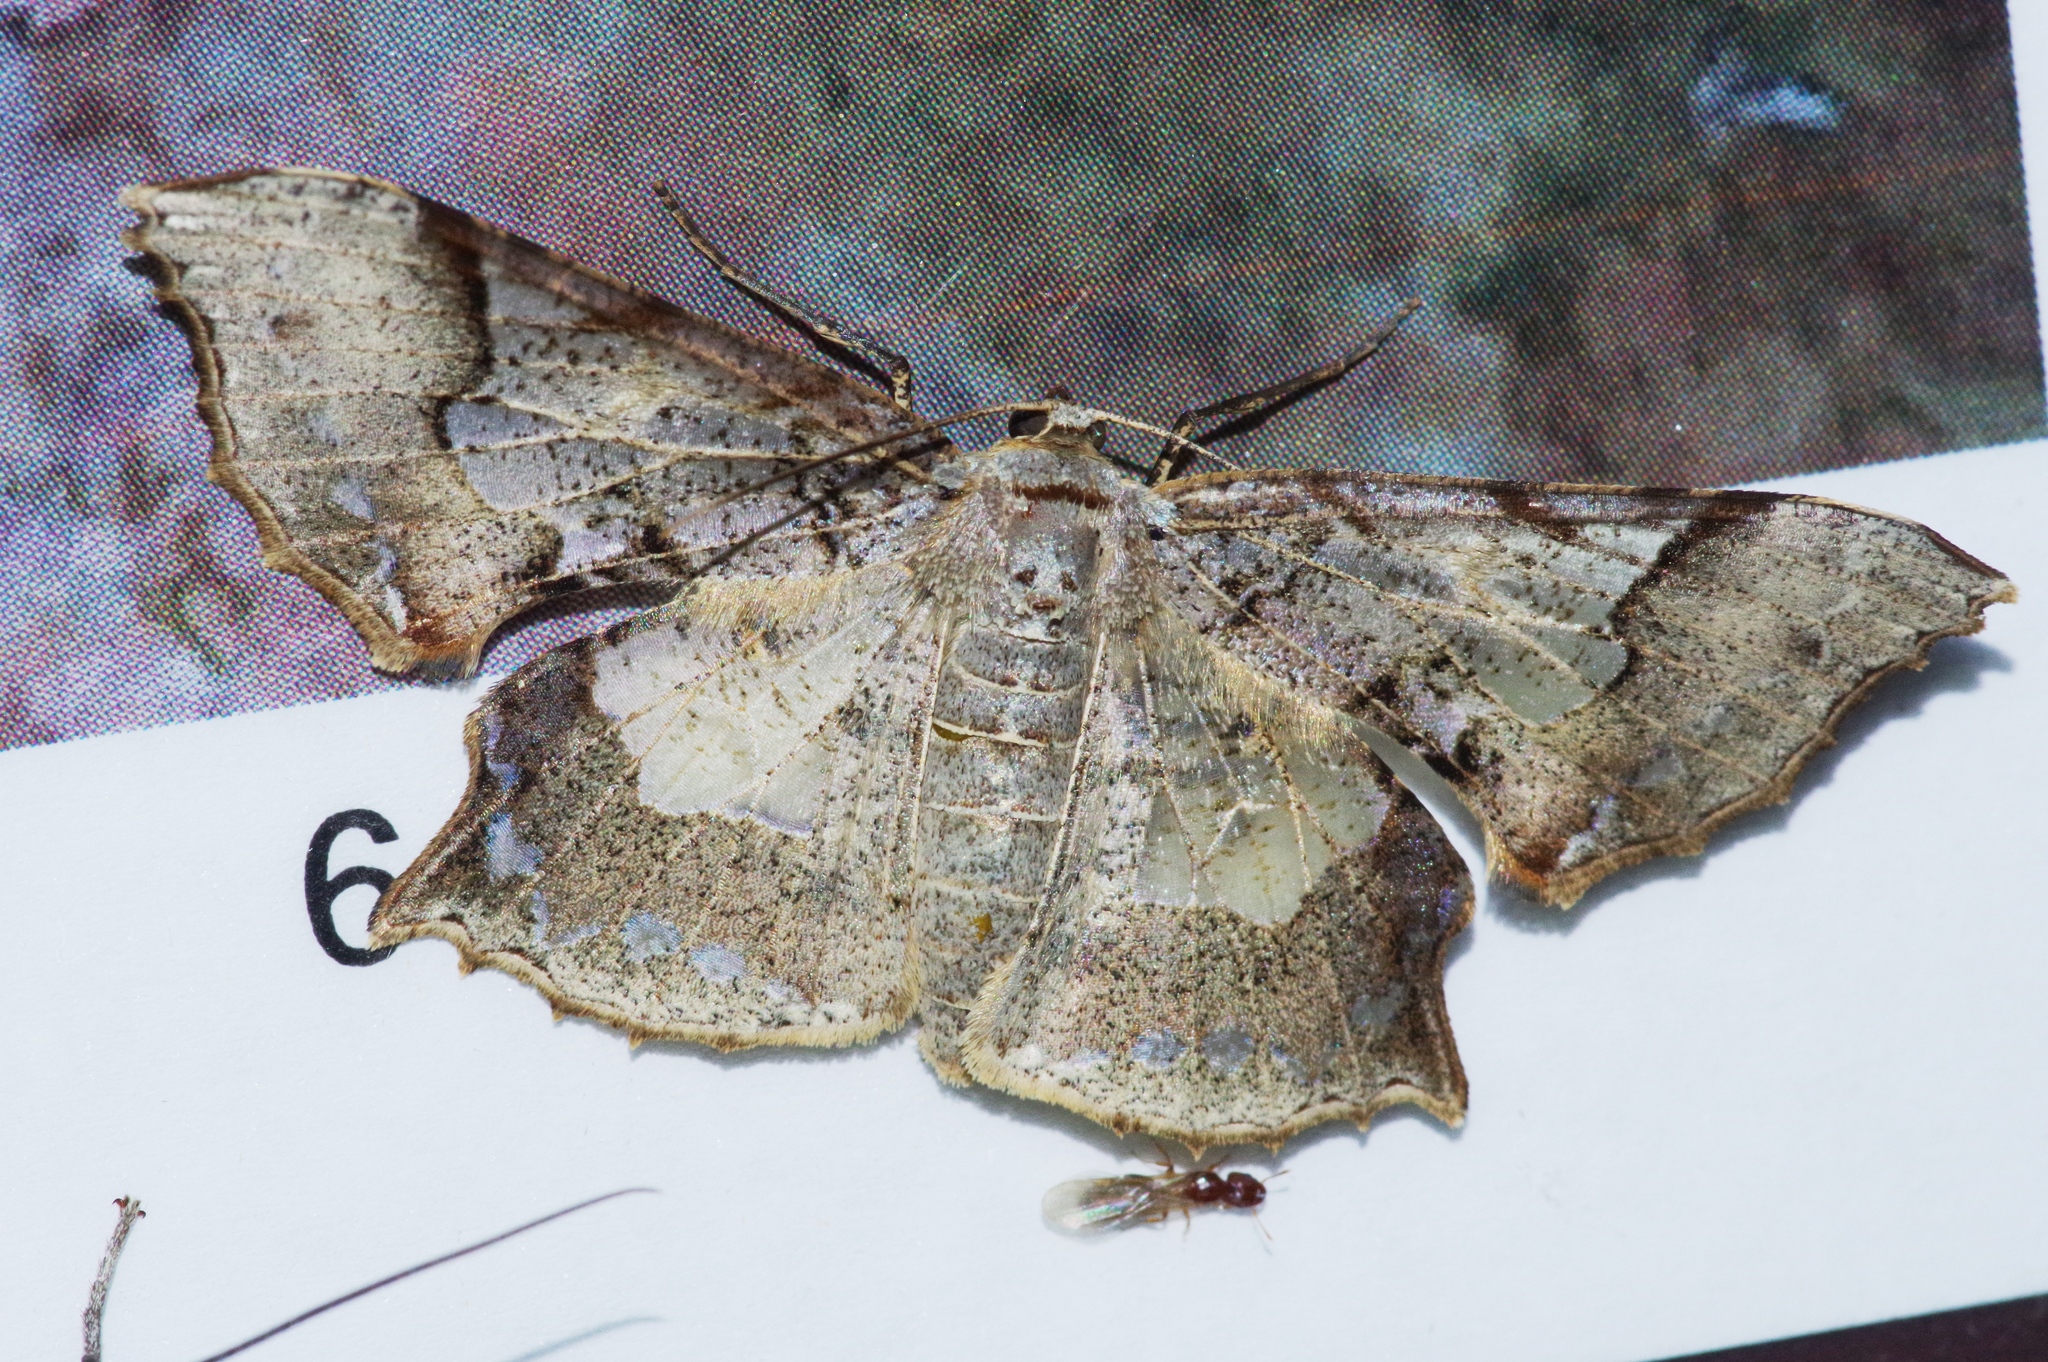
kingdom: Animalia
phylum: Arthropoda
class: Insecta
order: Lepidoptera
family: Geometridae
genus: Krananda
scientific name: Krananda semihyalina
